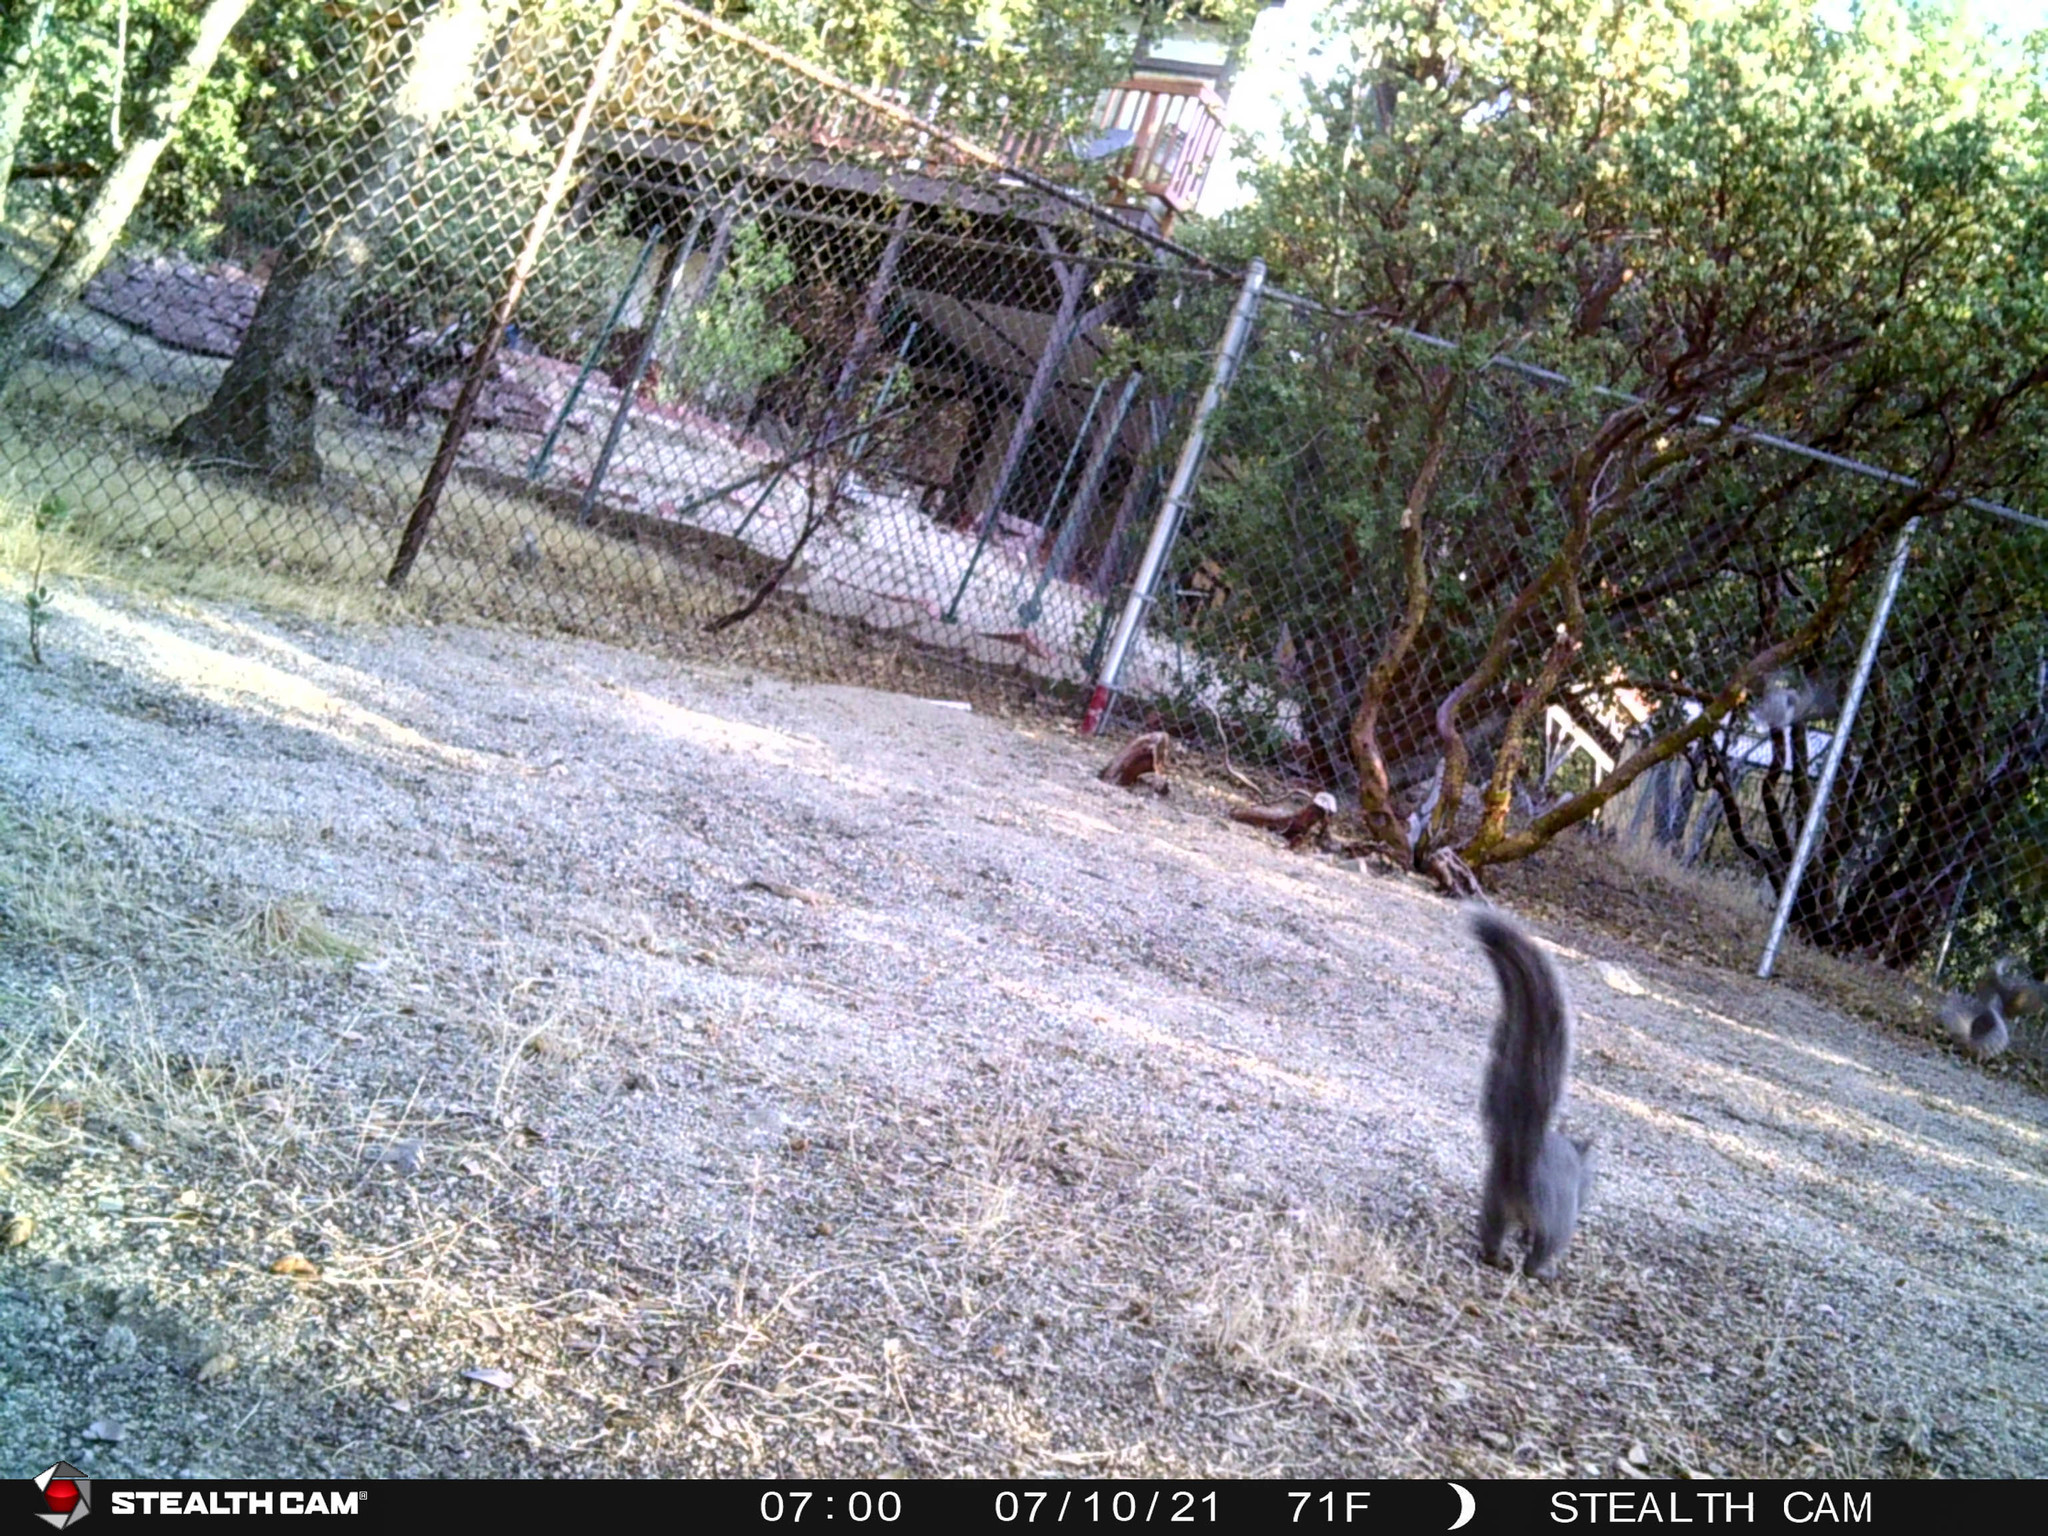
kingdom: Animalia
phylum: Chordata
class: Mammalia
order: Rodentia
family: Sciuridae
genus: Sciurus
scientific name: Sciurus griseus
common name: Western gray squirrel
